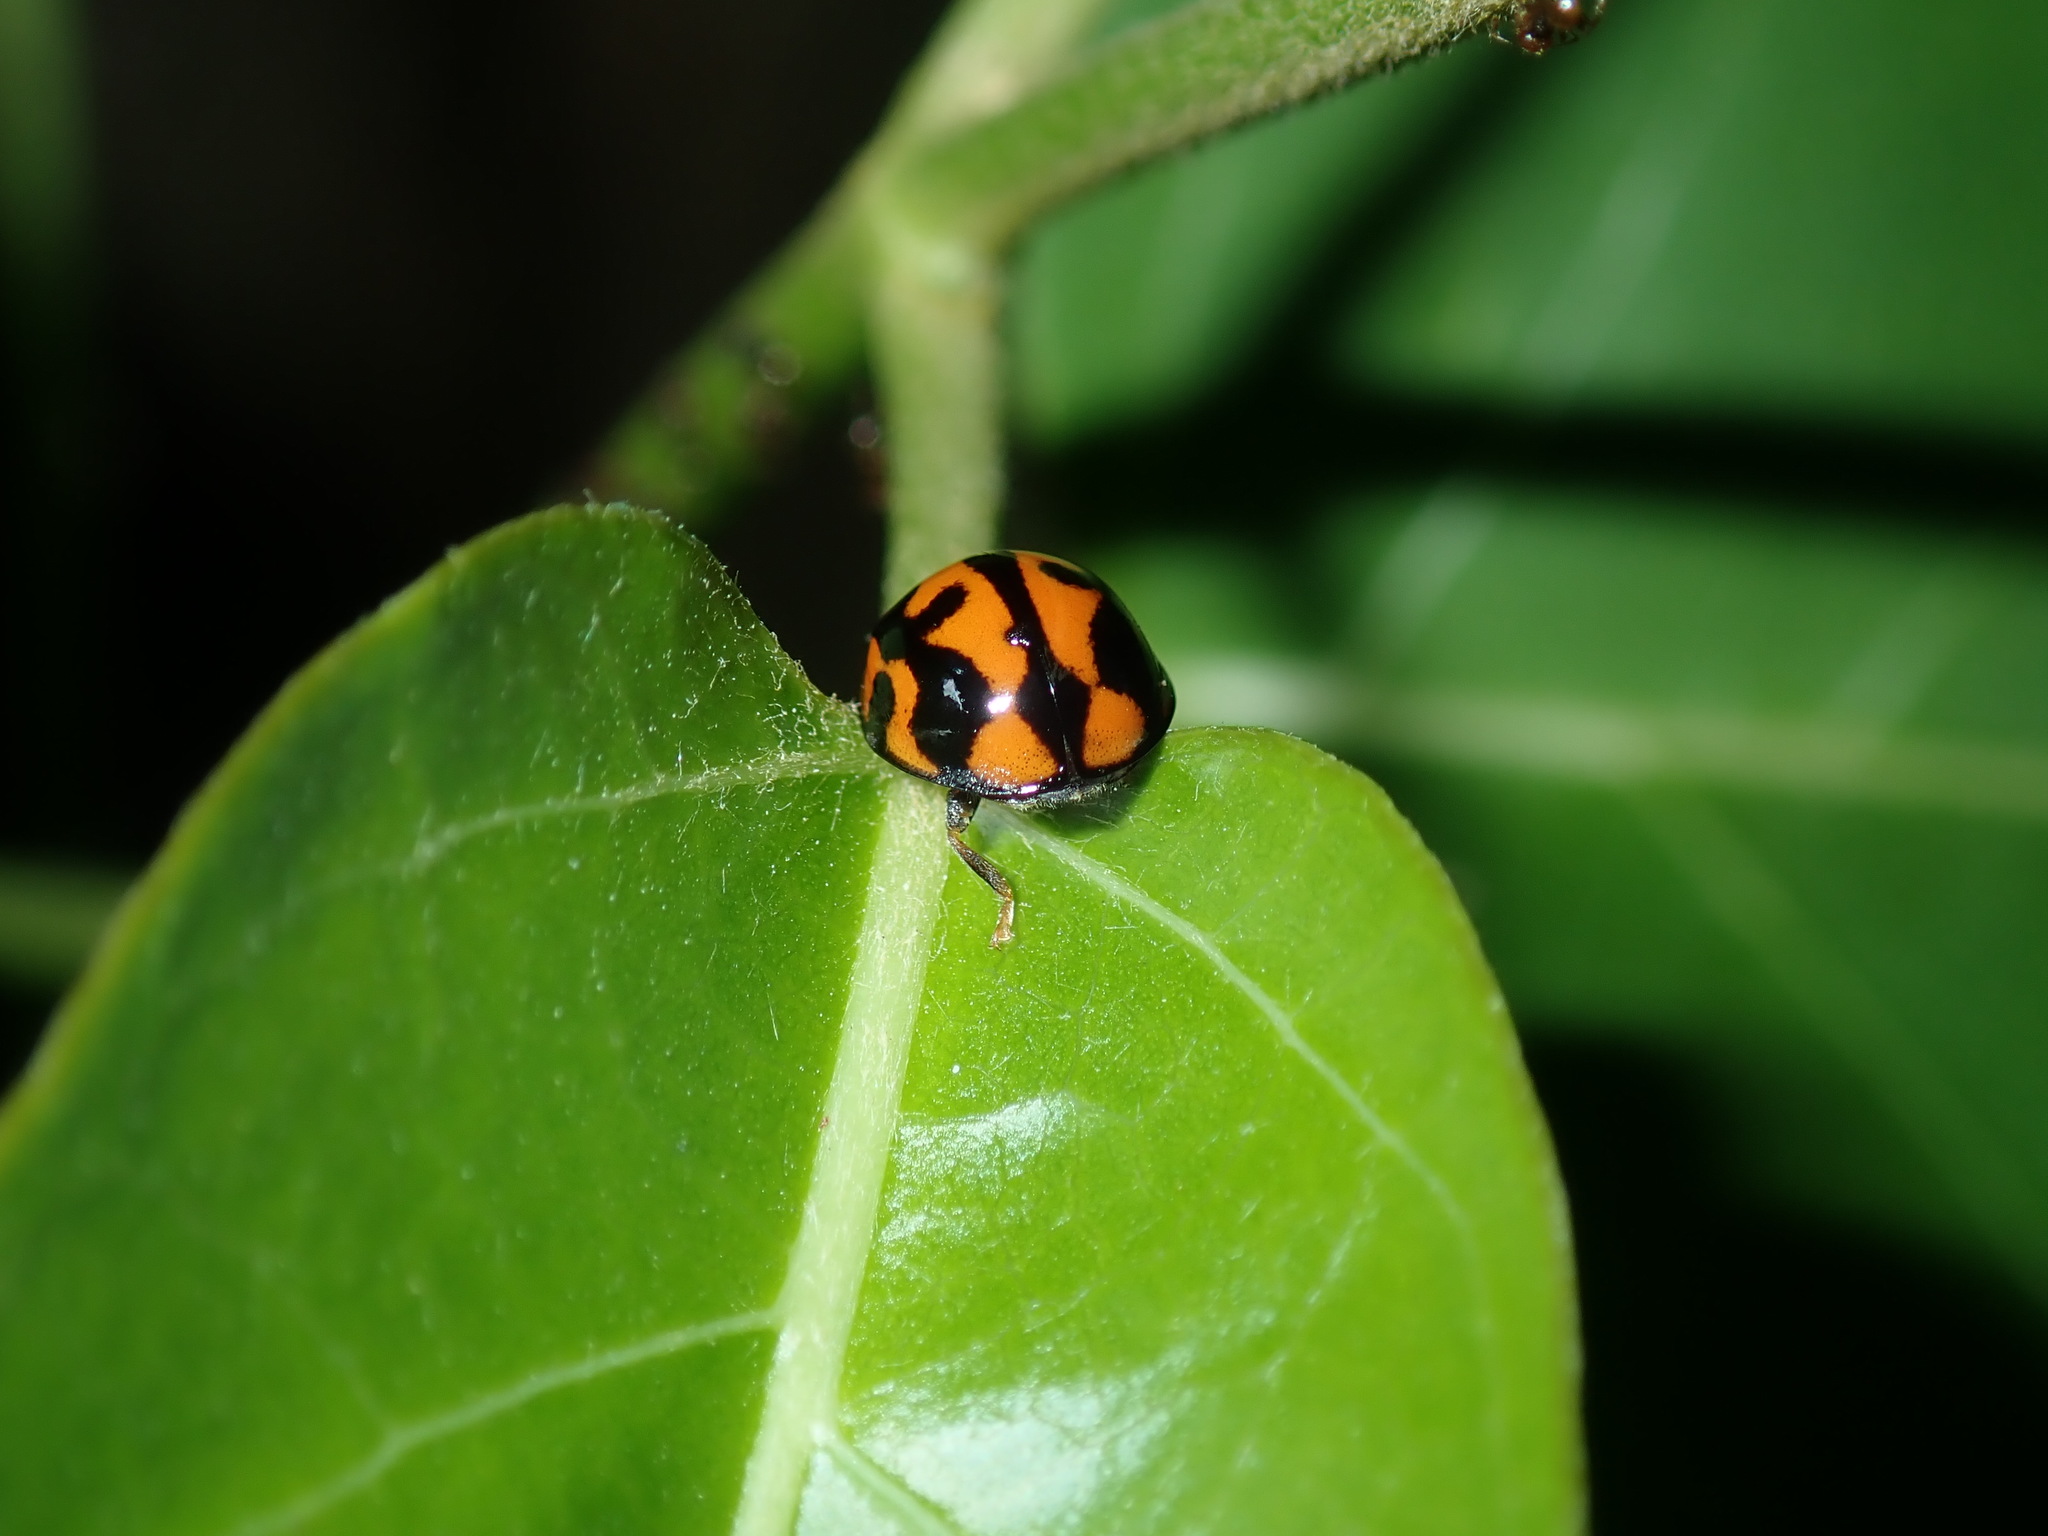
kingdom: Animalia
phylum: Arthropoda
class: Insecta
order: Coleoptera
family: Coccinellidae
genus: Coelophora
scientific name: Coelophora inaequalis
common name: Common australian lady beetle
